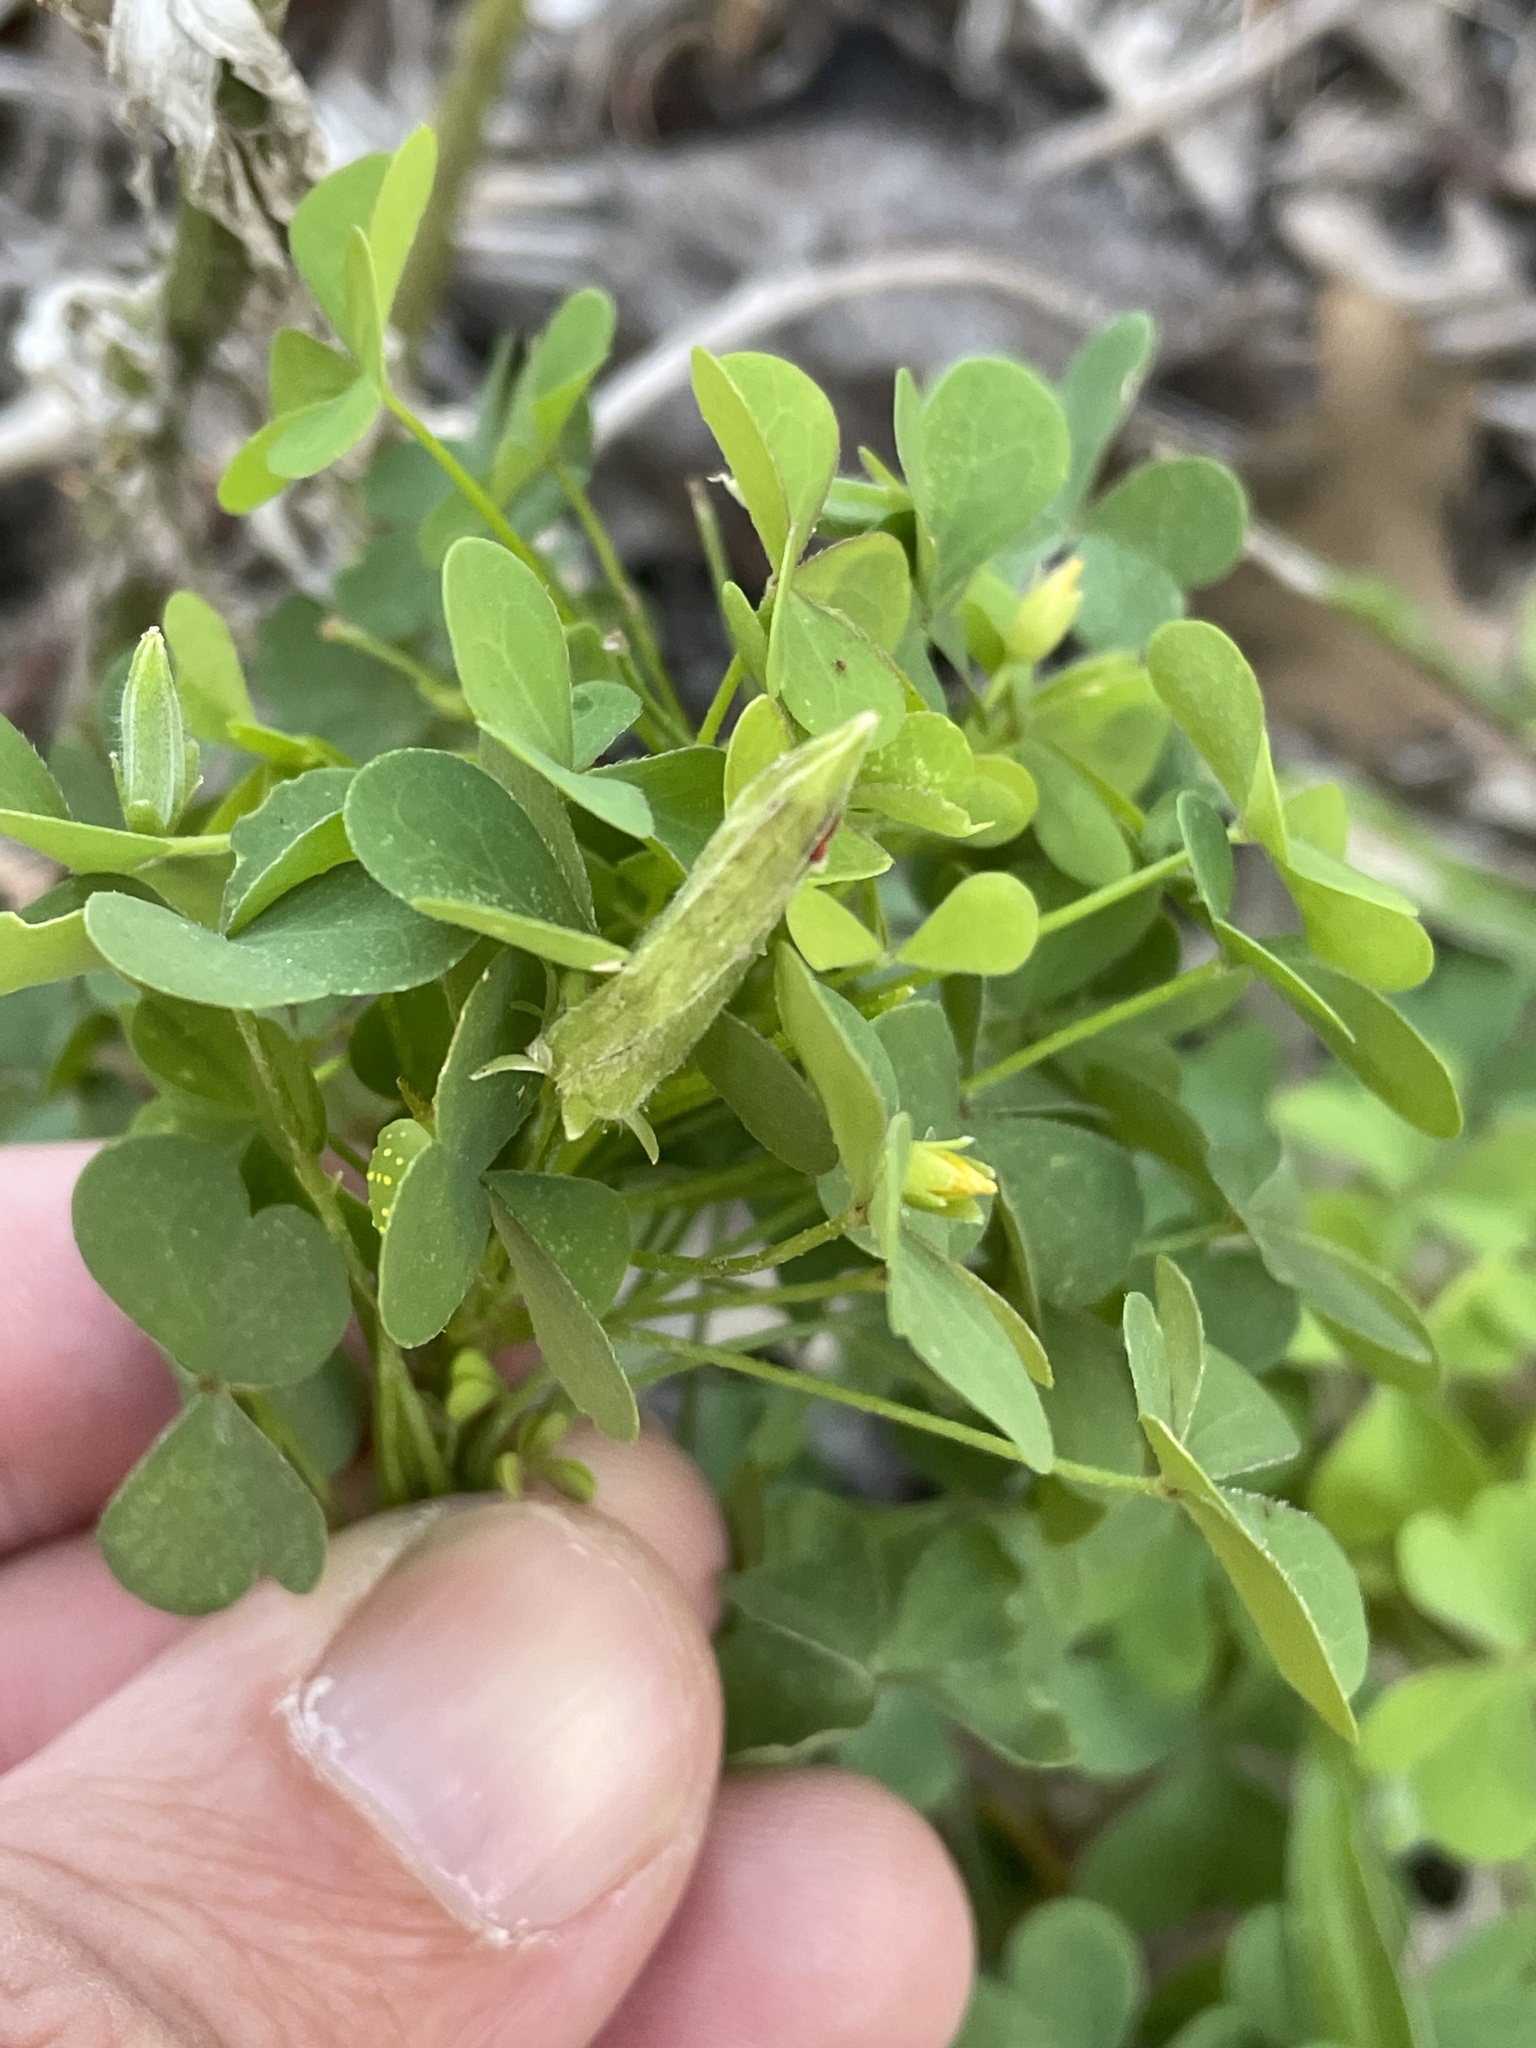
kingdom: Plantae
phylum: Tracheophyta
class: Magnoliopsida
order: Oxalidales
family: Oxalidaceae
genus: Oxalis
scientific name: Oxalis dillenii
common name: Sussex yellow-sorrel
